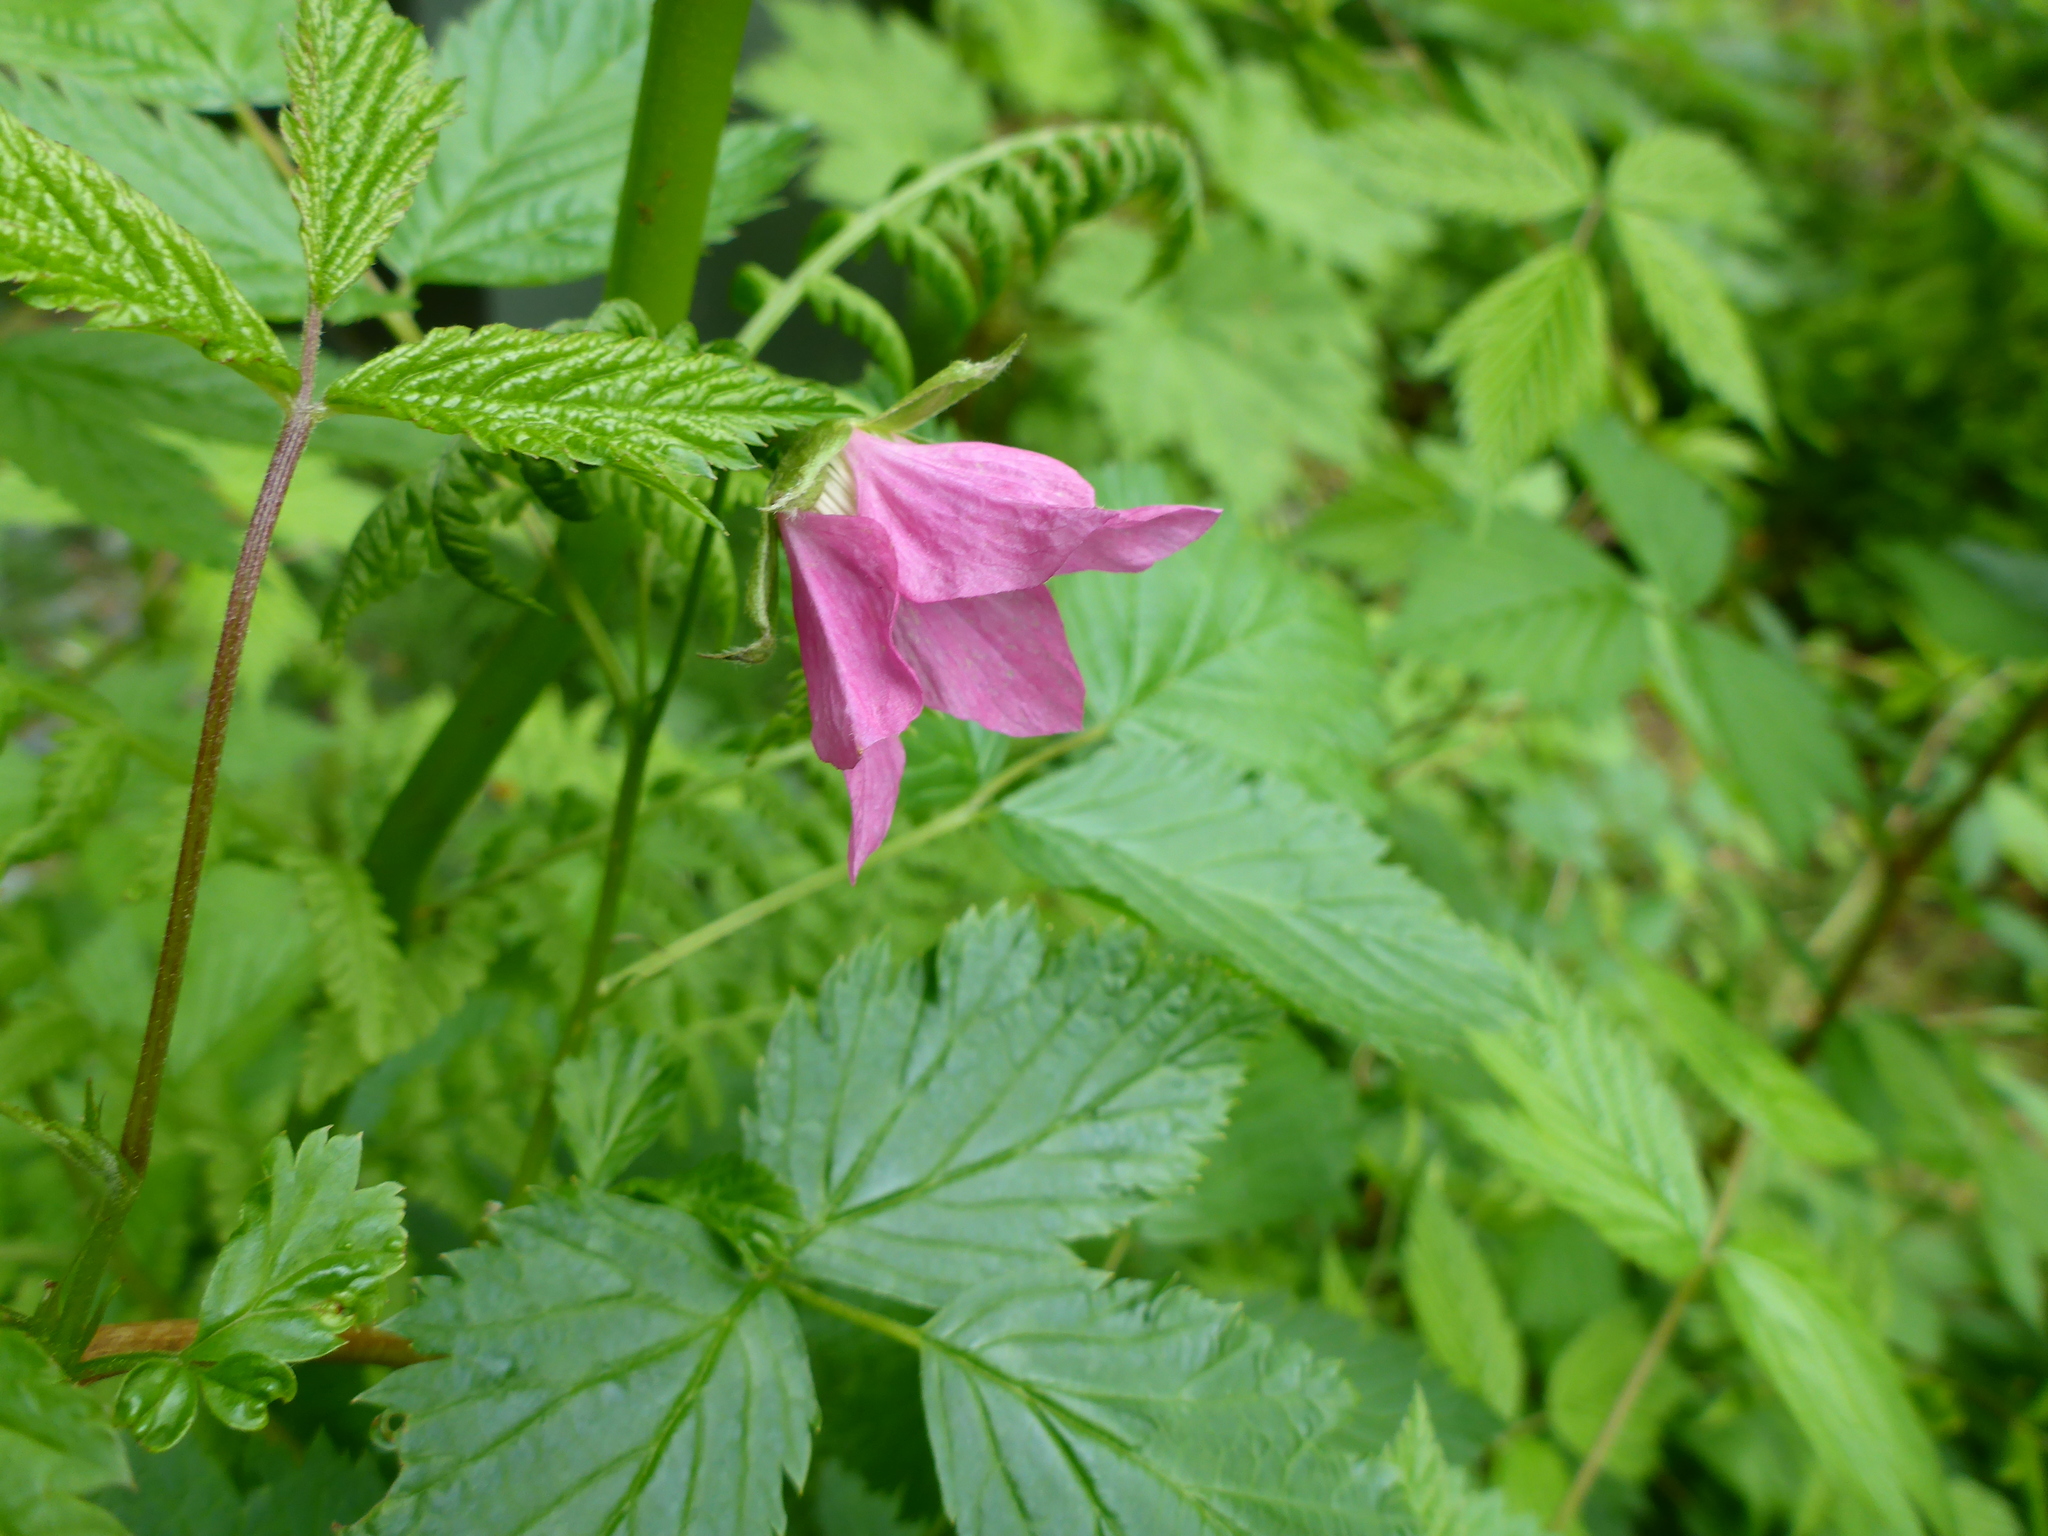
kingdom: Plantae
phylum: Tracheophyta
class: Magnoliopsida
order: Rosales
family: Rosaceae
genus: Rubus
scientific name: Rubus spectabilis
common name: Salmonberry
